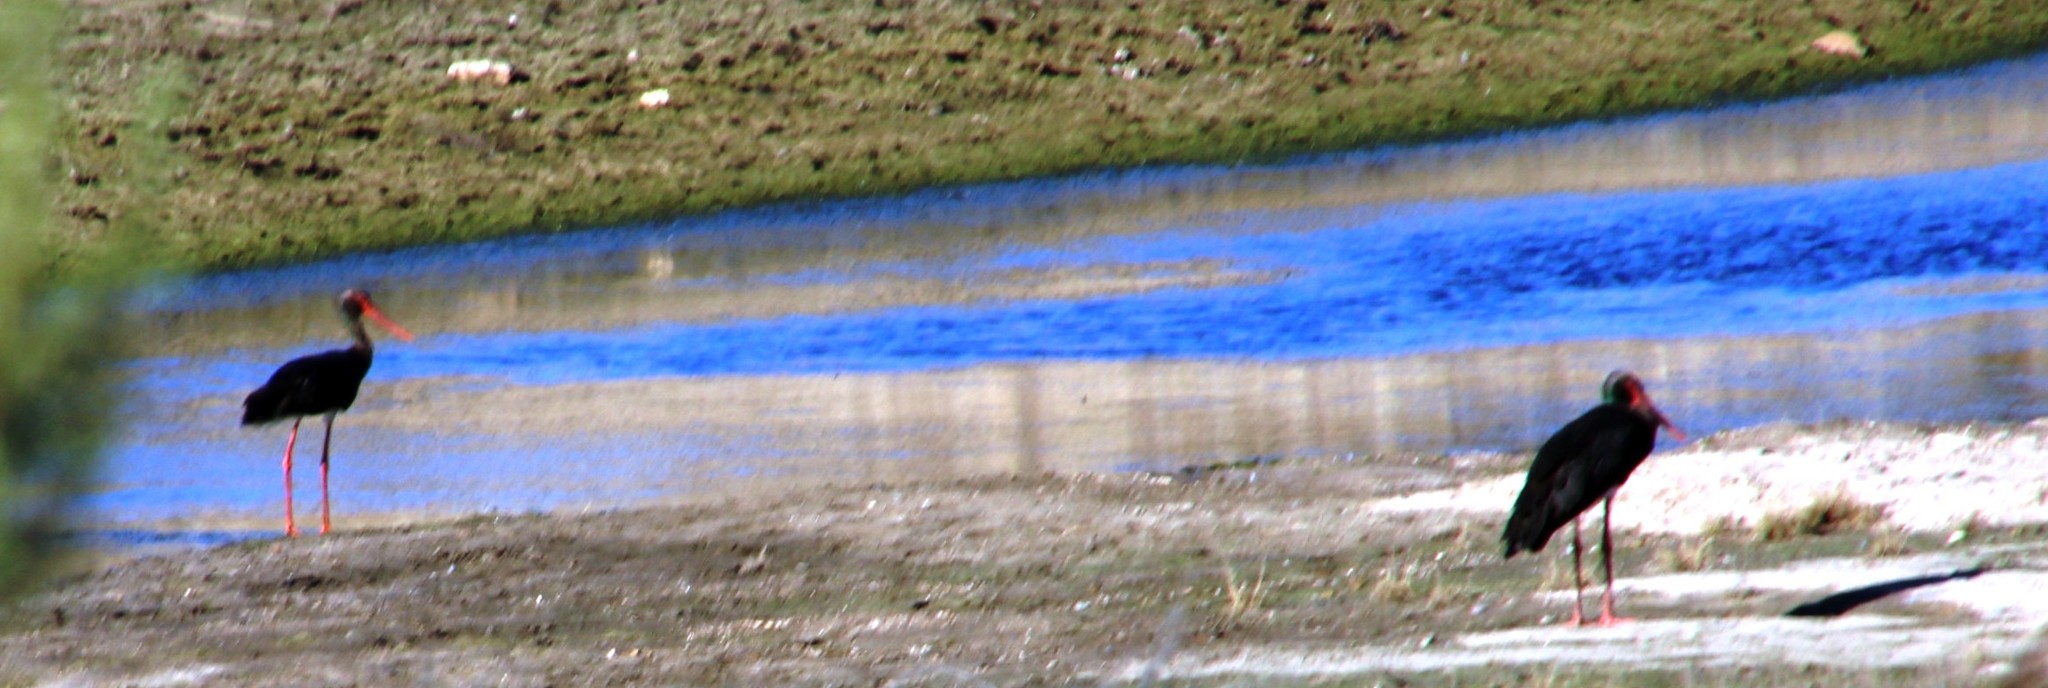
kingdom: Animalia
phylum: Chordata
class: Aves
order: Ciconiiformes
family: Ciconiidae
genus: Ciconia
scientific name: Ciconia nigra
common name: Black stork
